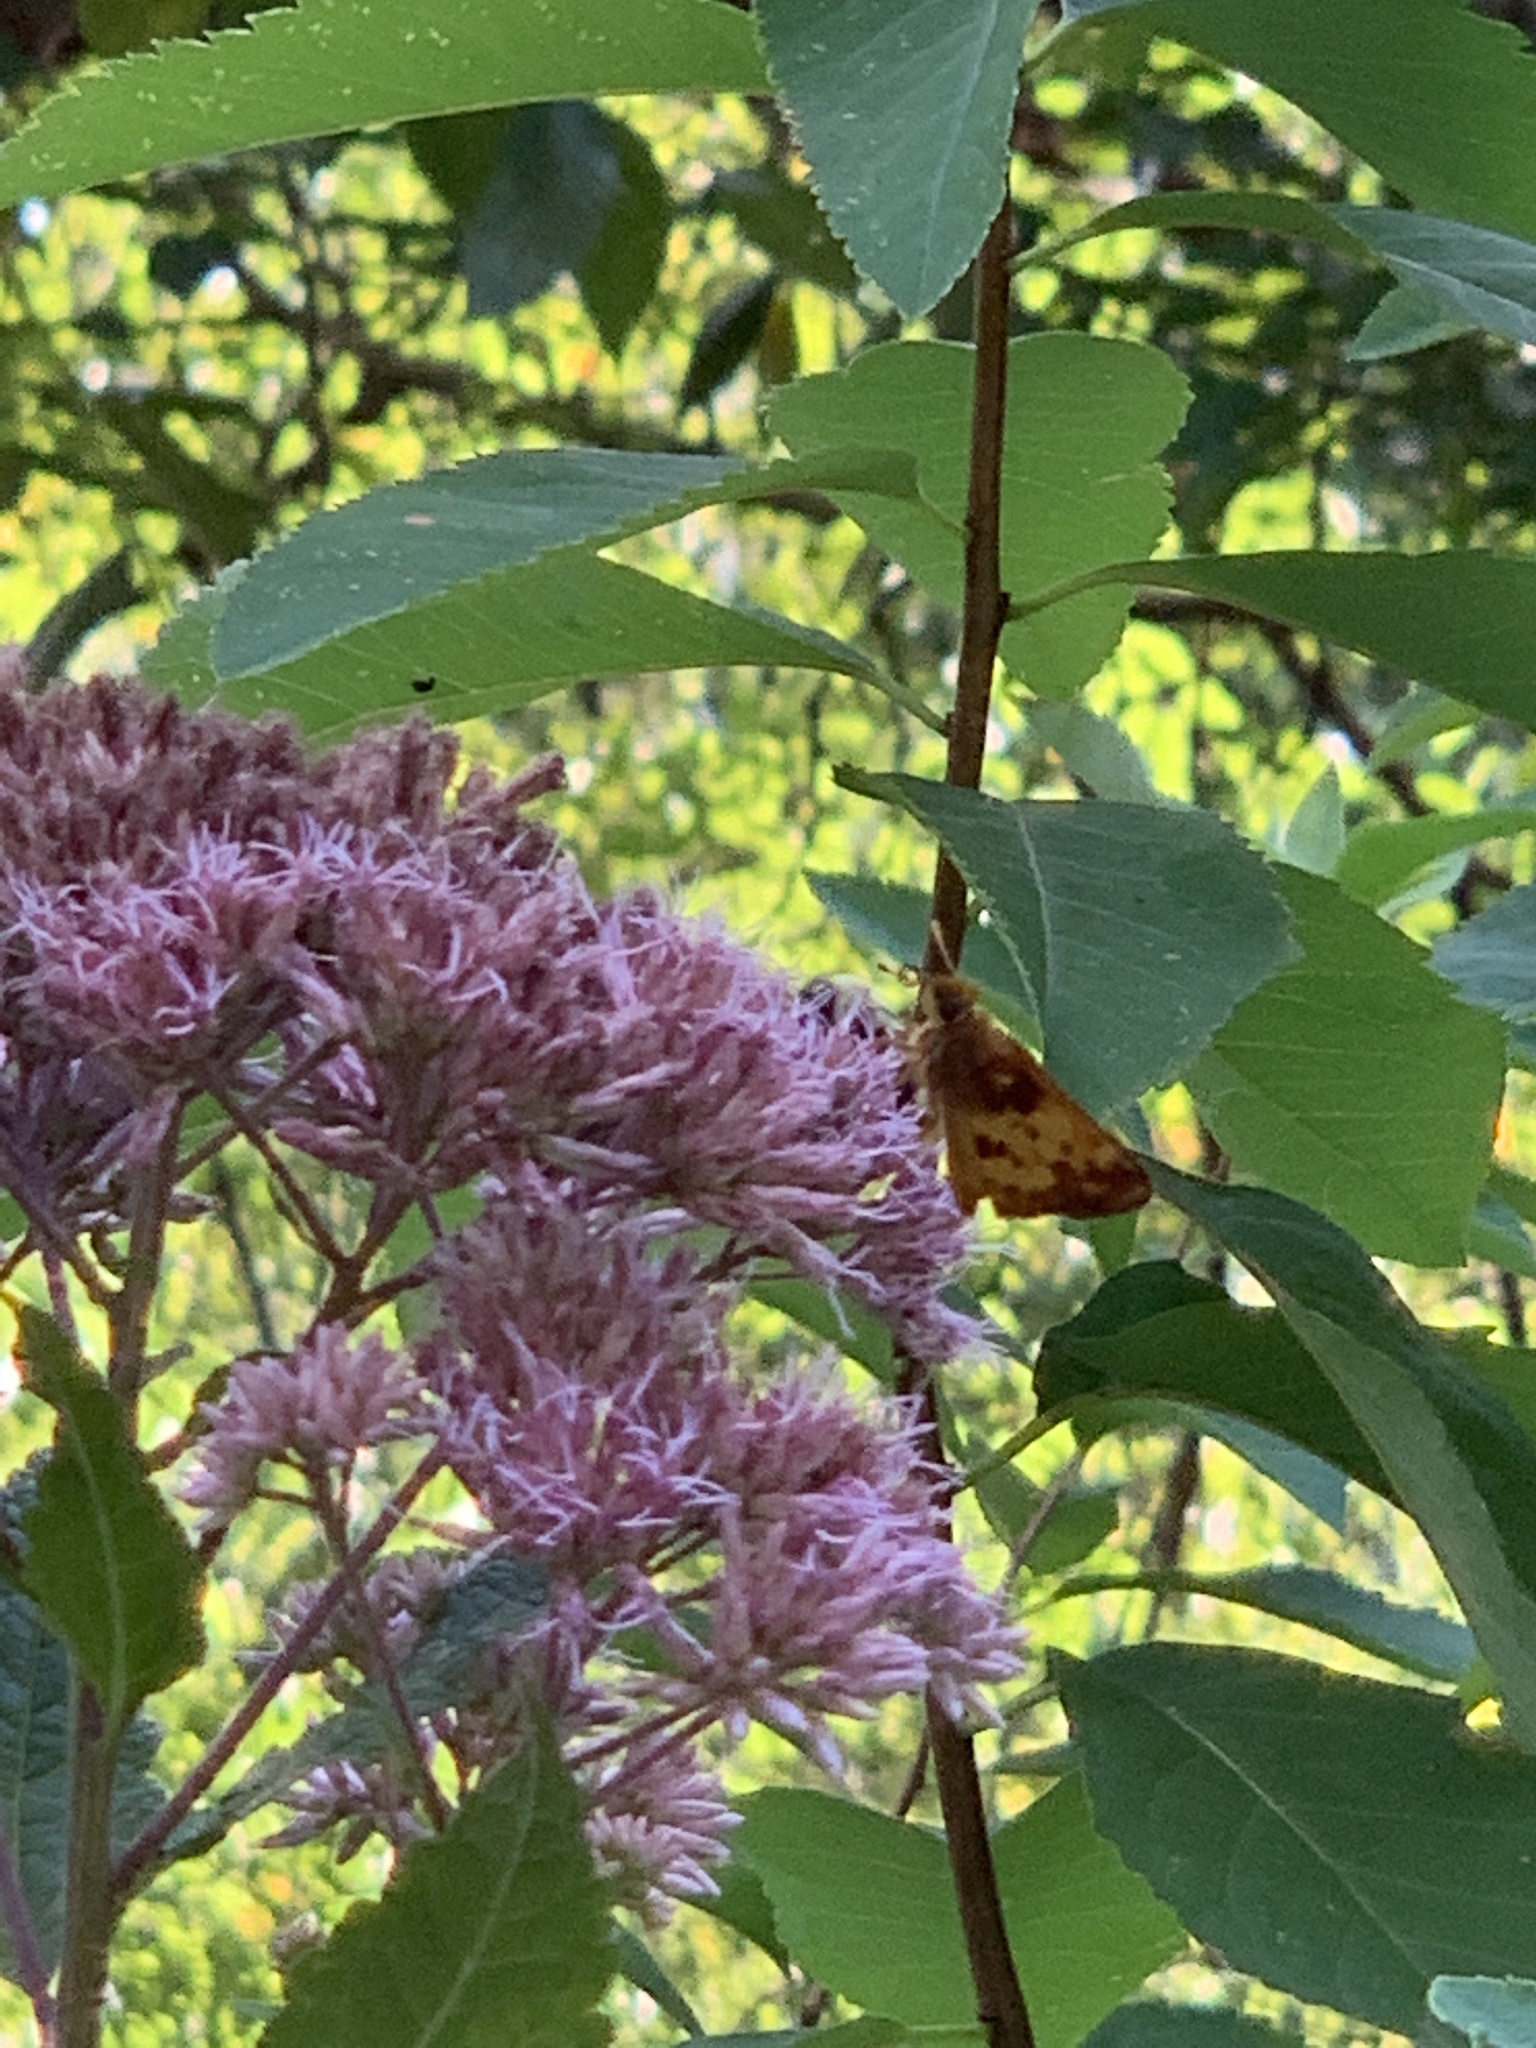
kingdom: Animalia
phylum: Arthropoda
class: Insecta
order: Lepidoptera
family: Hesperiidae
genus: Lon
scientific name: Lon zabulon
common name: Zabulon skipper
